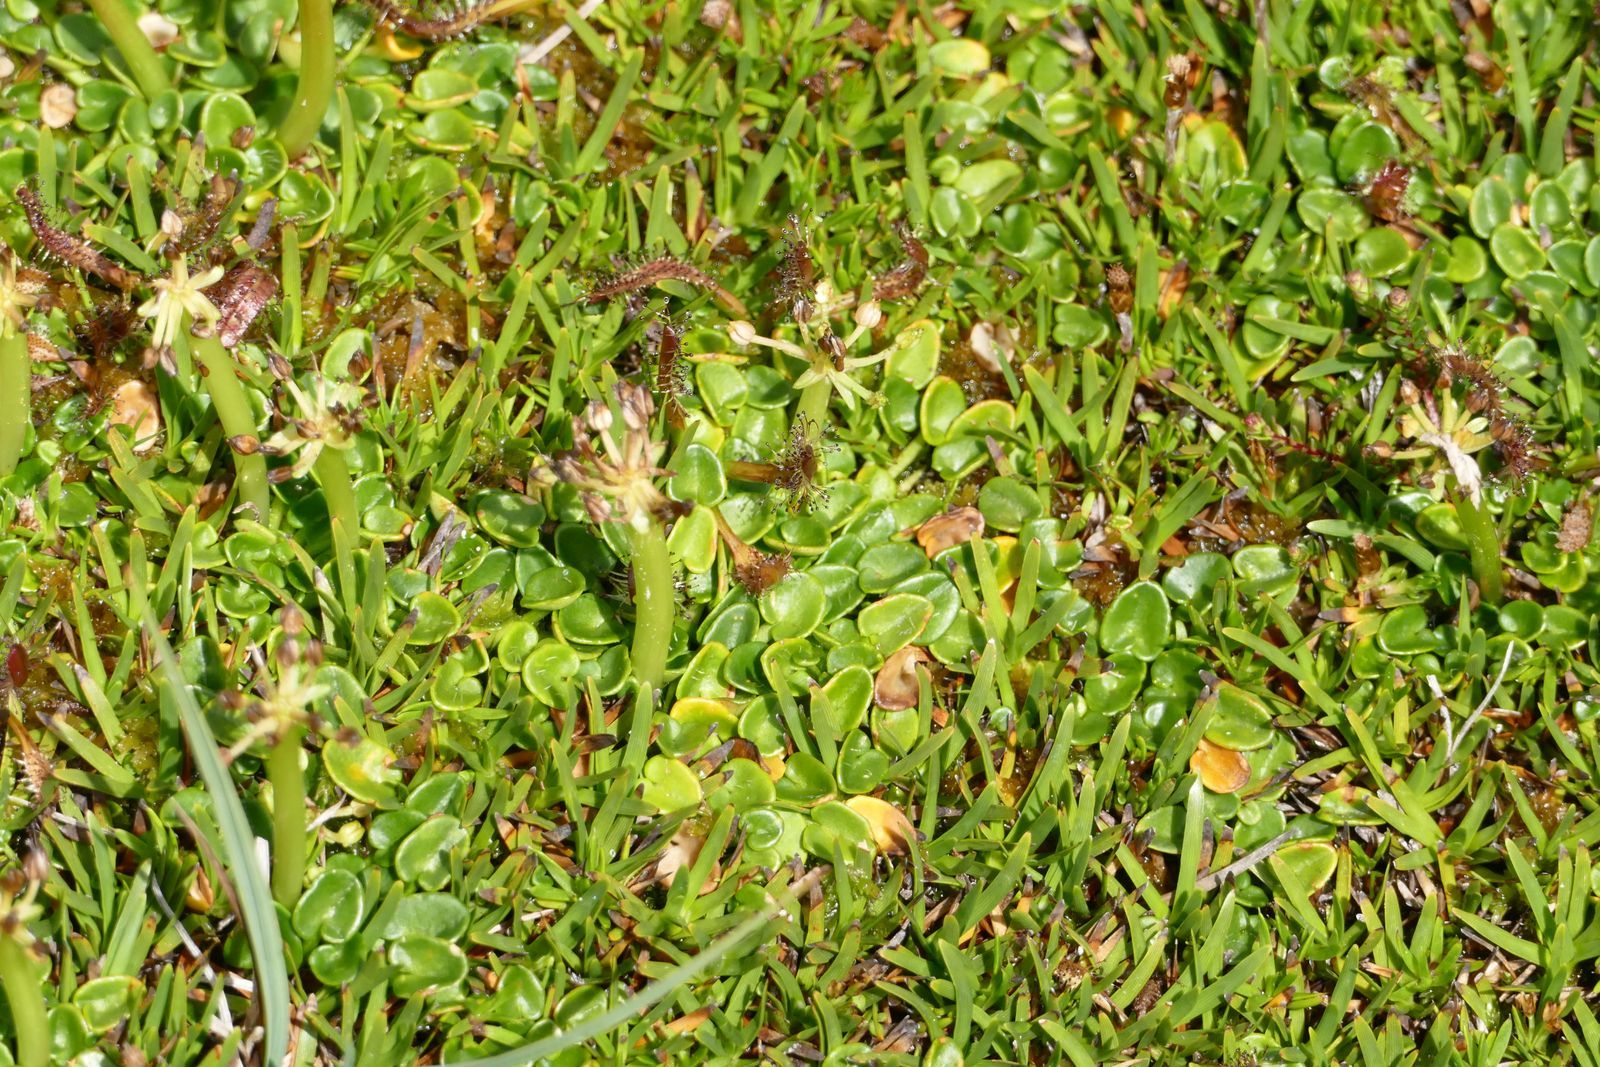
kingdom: Plantae
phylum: Tracheophyta
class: Magnoliopsida
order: Caryophyllales
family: Droseraceae
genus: Drosera
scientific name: Drosera arcturi
